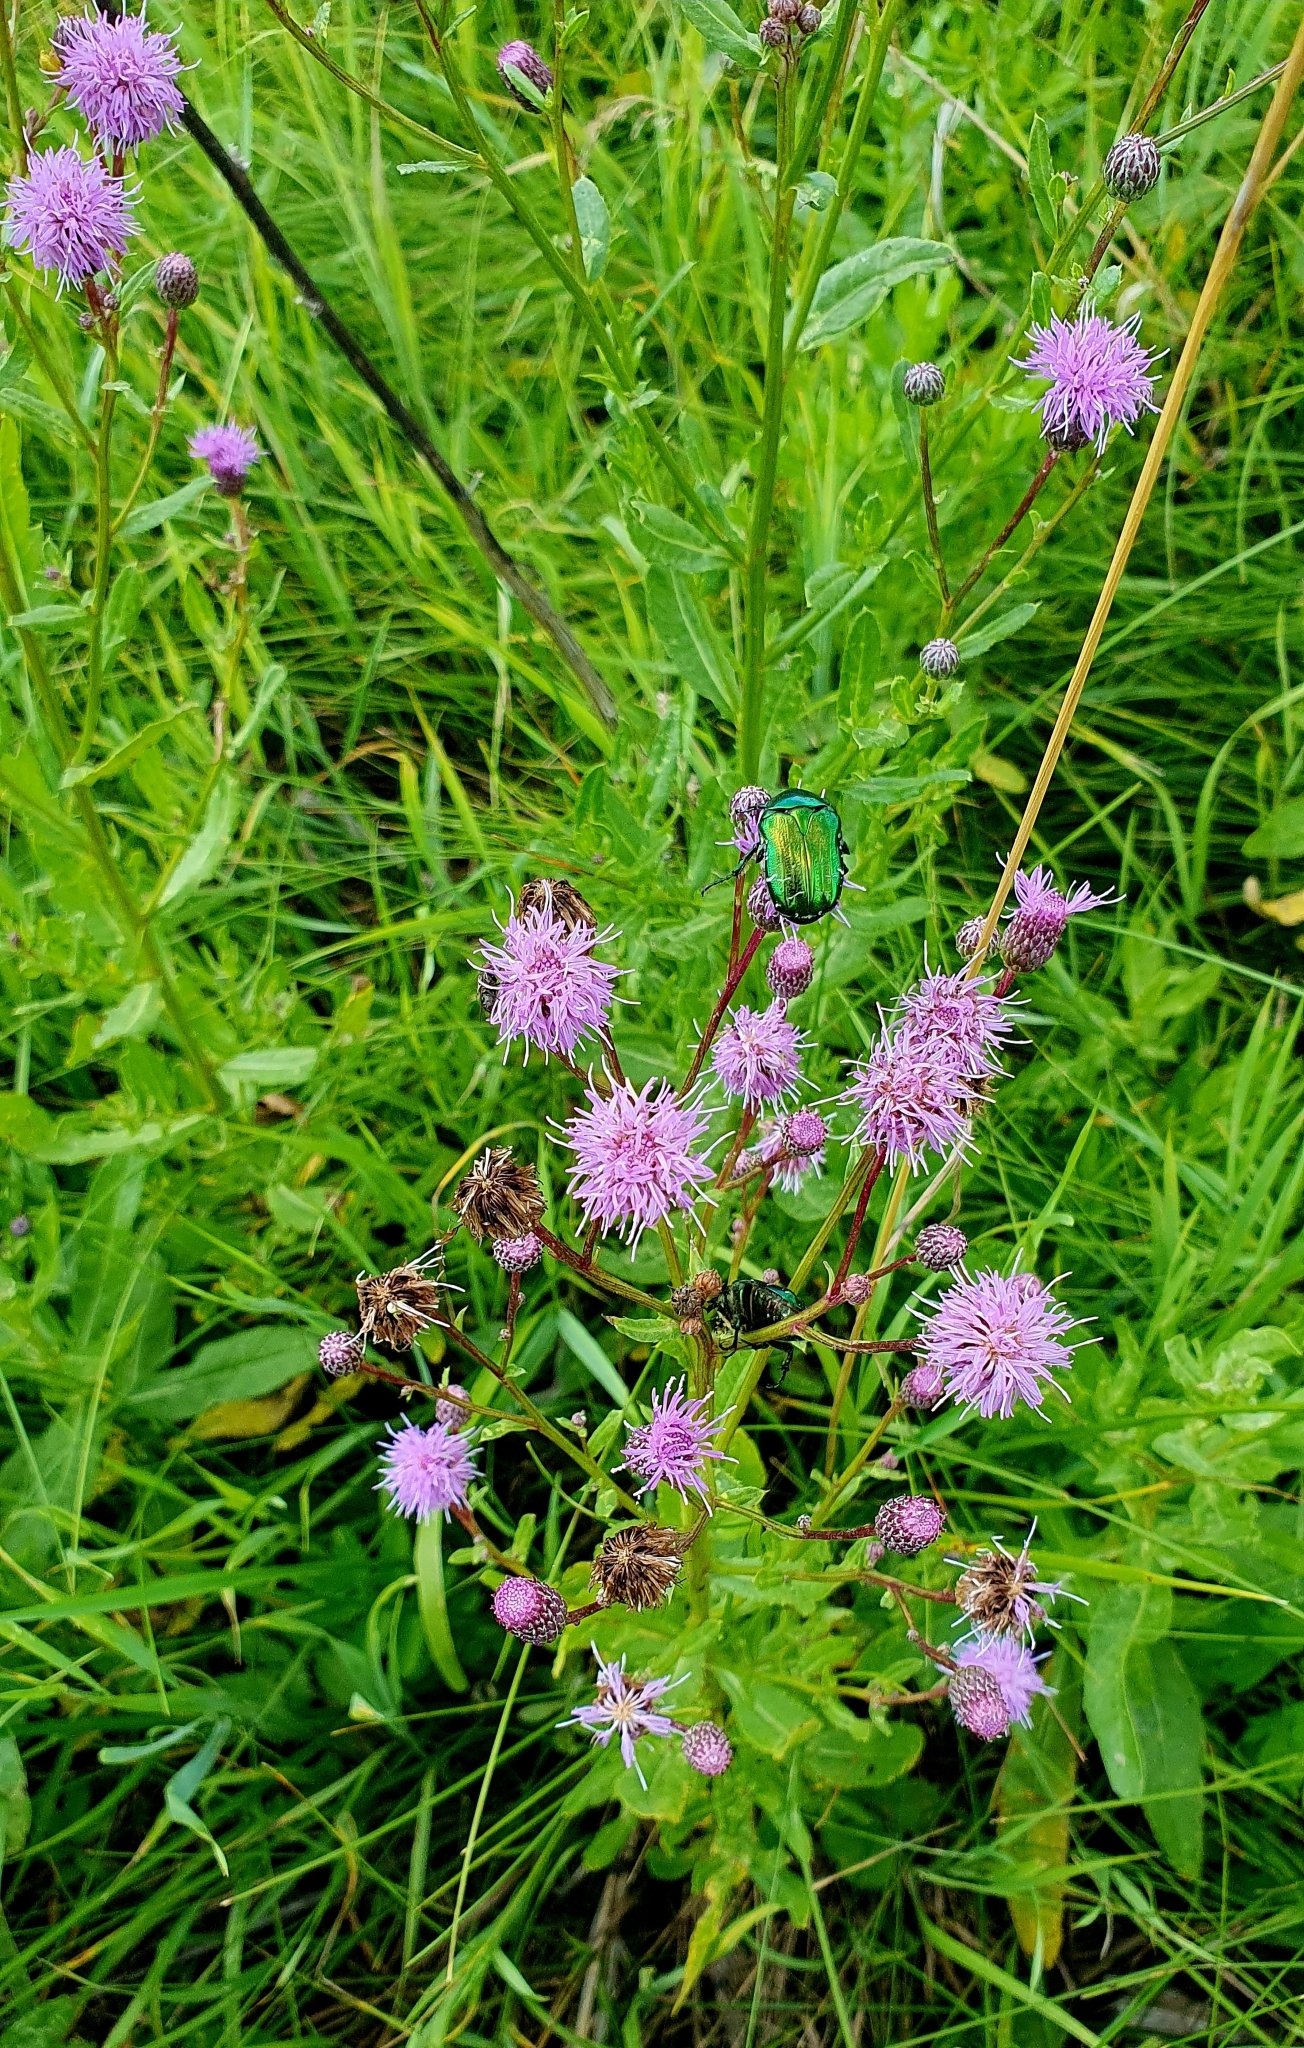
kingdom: Plantae
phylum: Tracheophyta
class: Magnoliopsida
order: Asterales
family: Asteraceae
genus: Cirsium
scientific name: Cirsium arvense
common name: Creeping thistle
